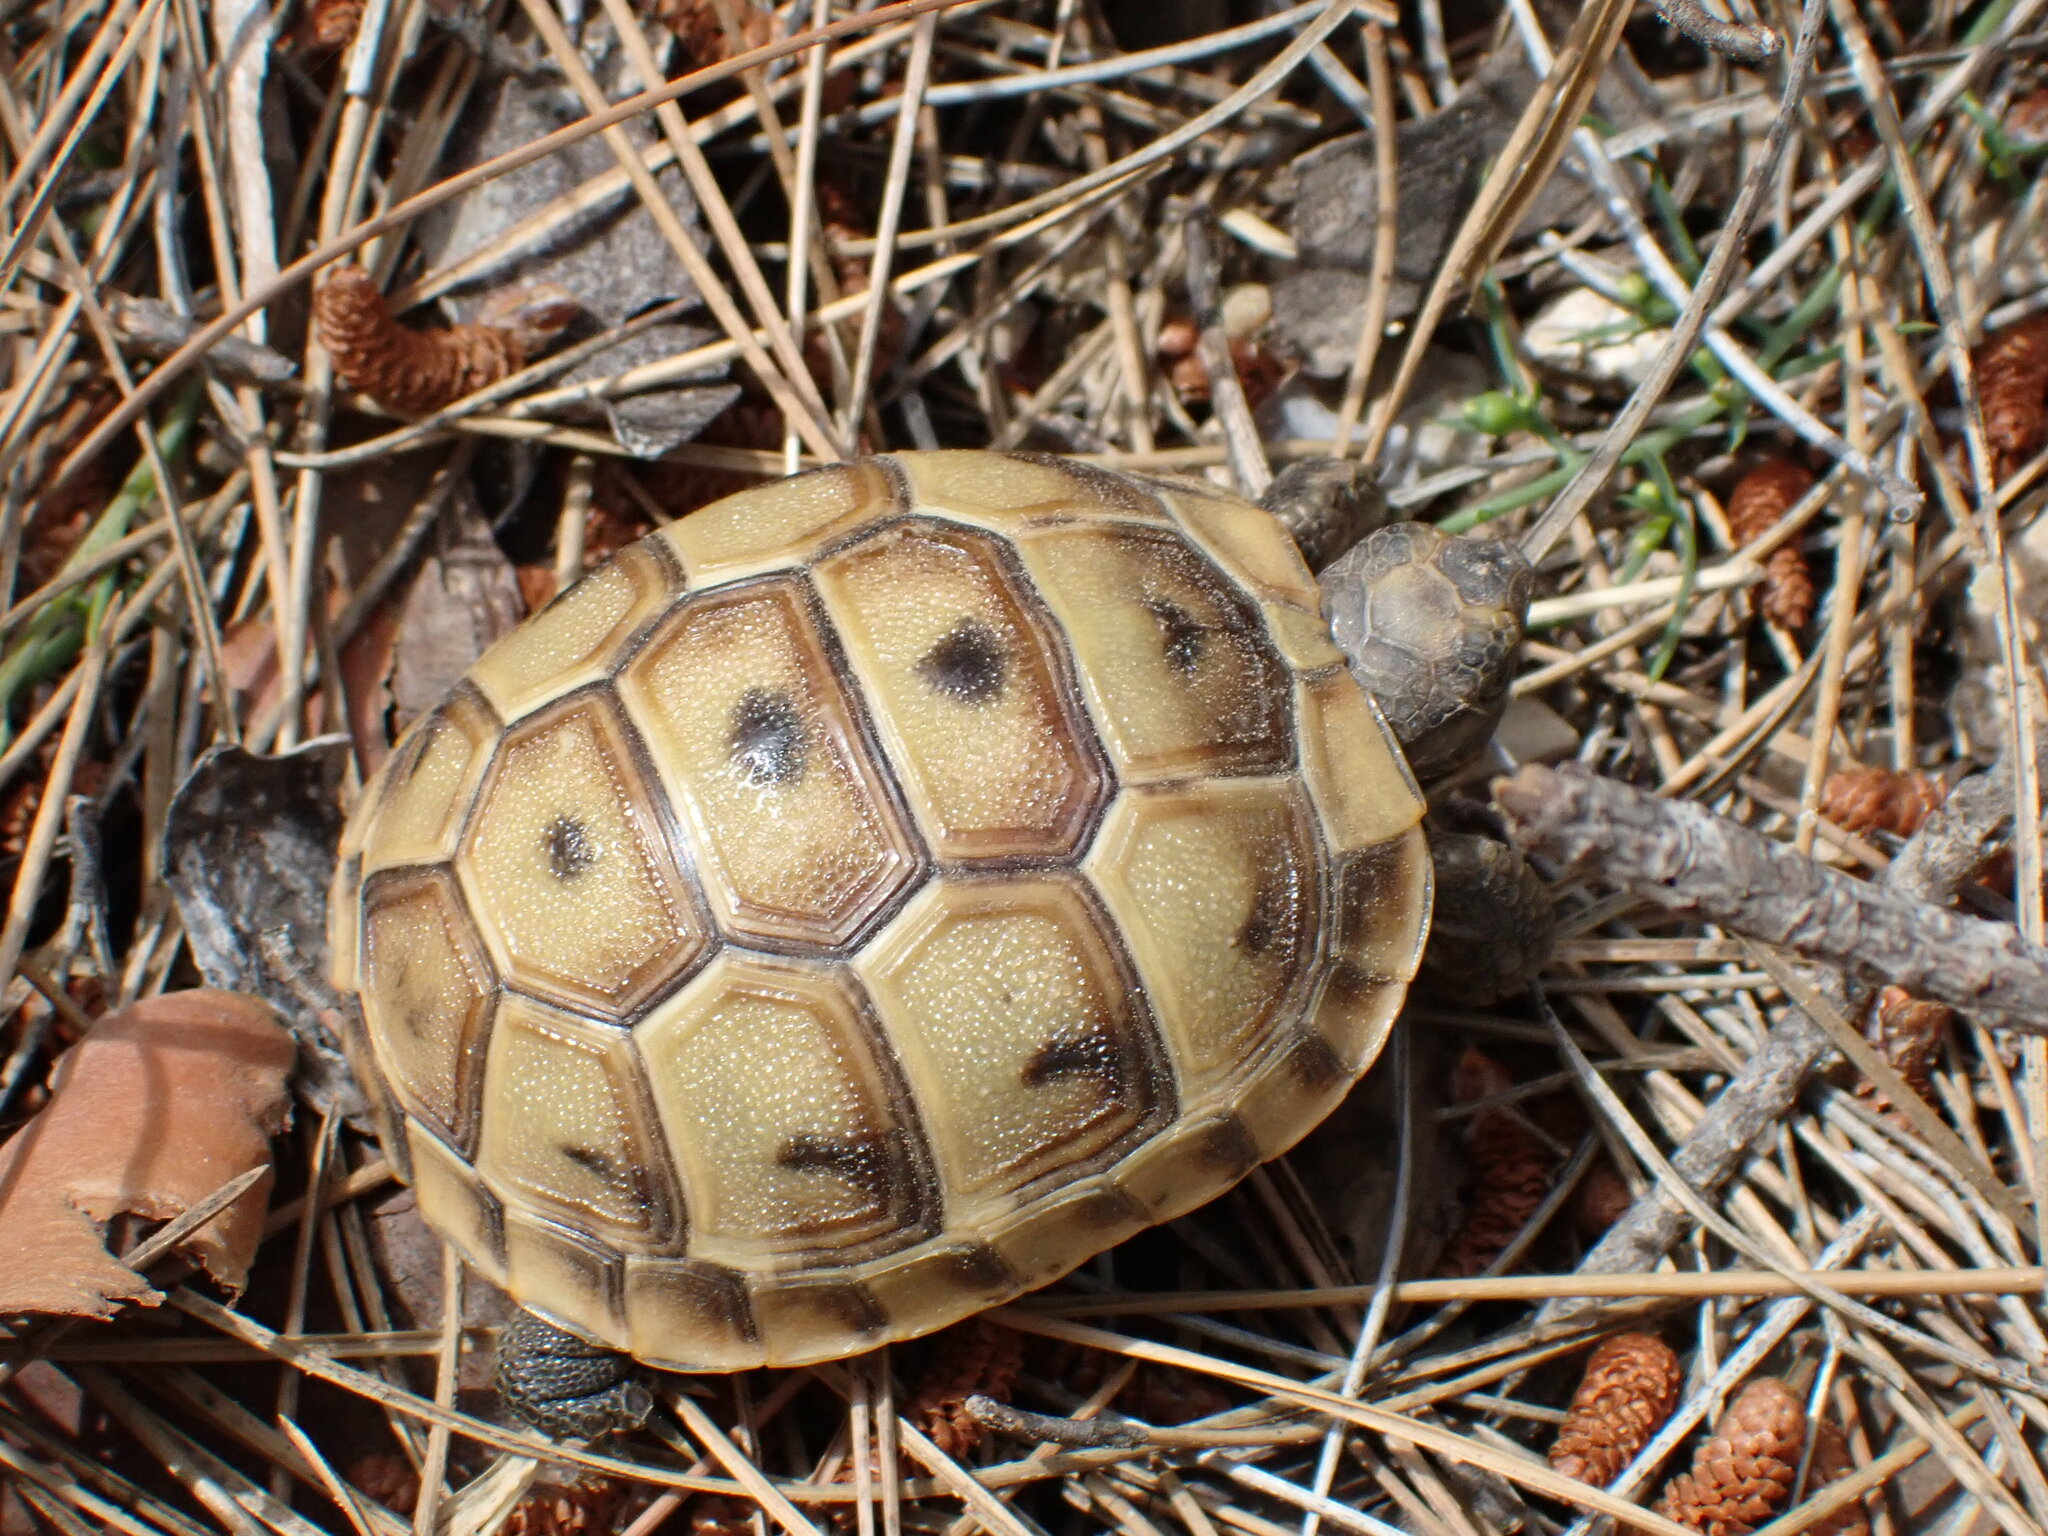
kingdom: Animalia
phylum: Chordata
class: Testudines
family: Testudinidae
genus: Testudo
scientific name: Testudo graeca
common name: Common tortoise
